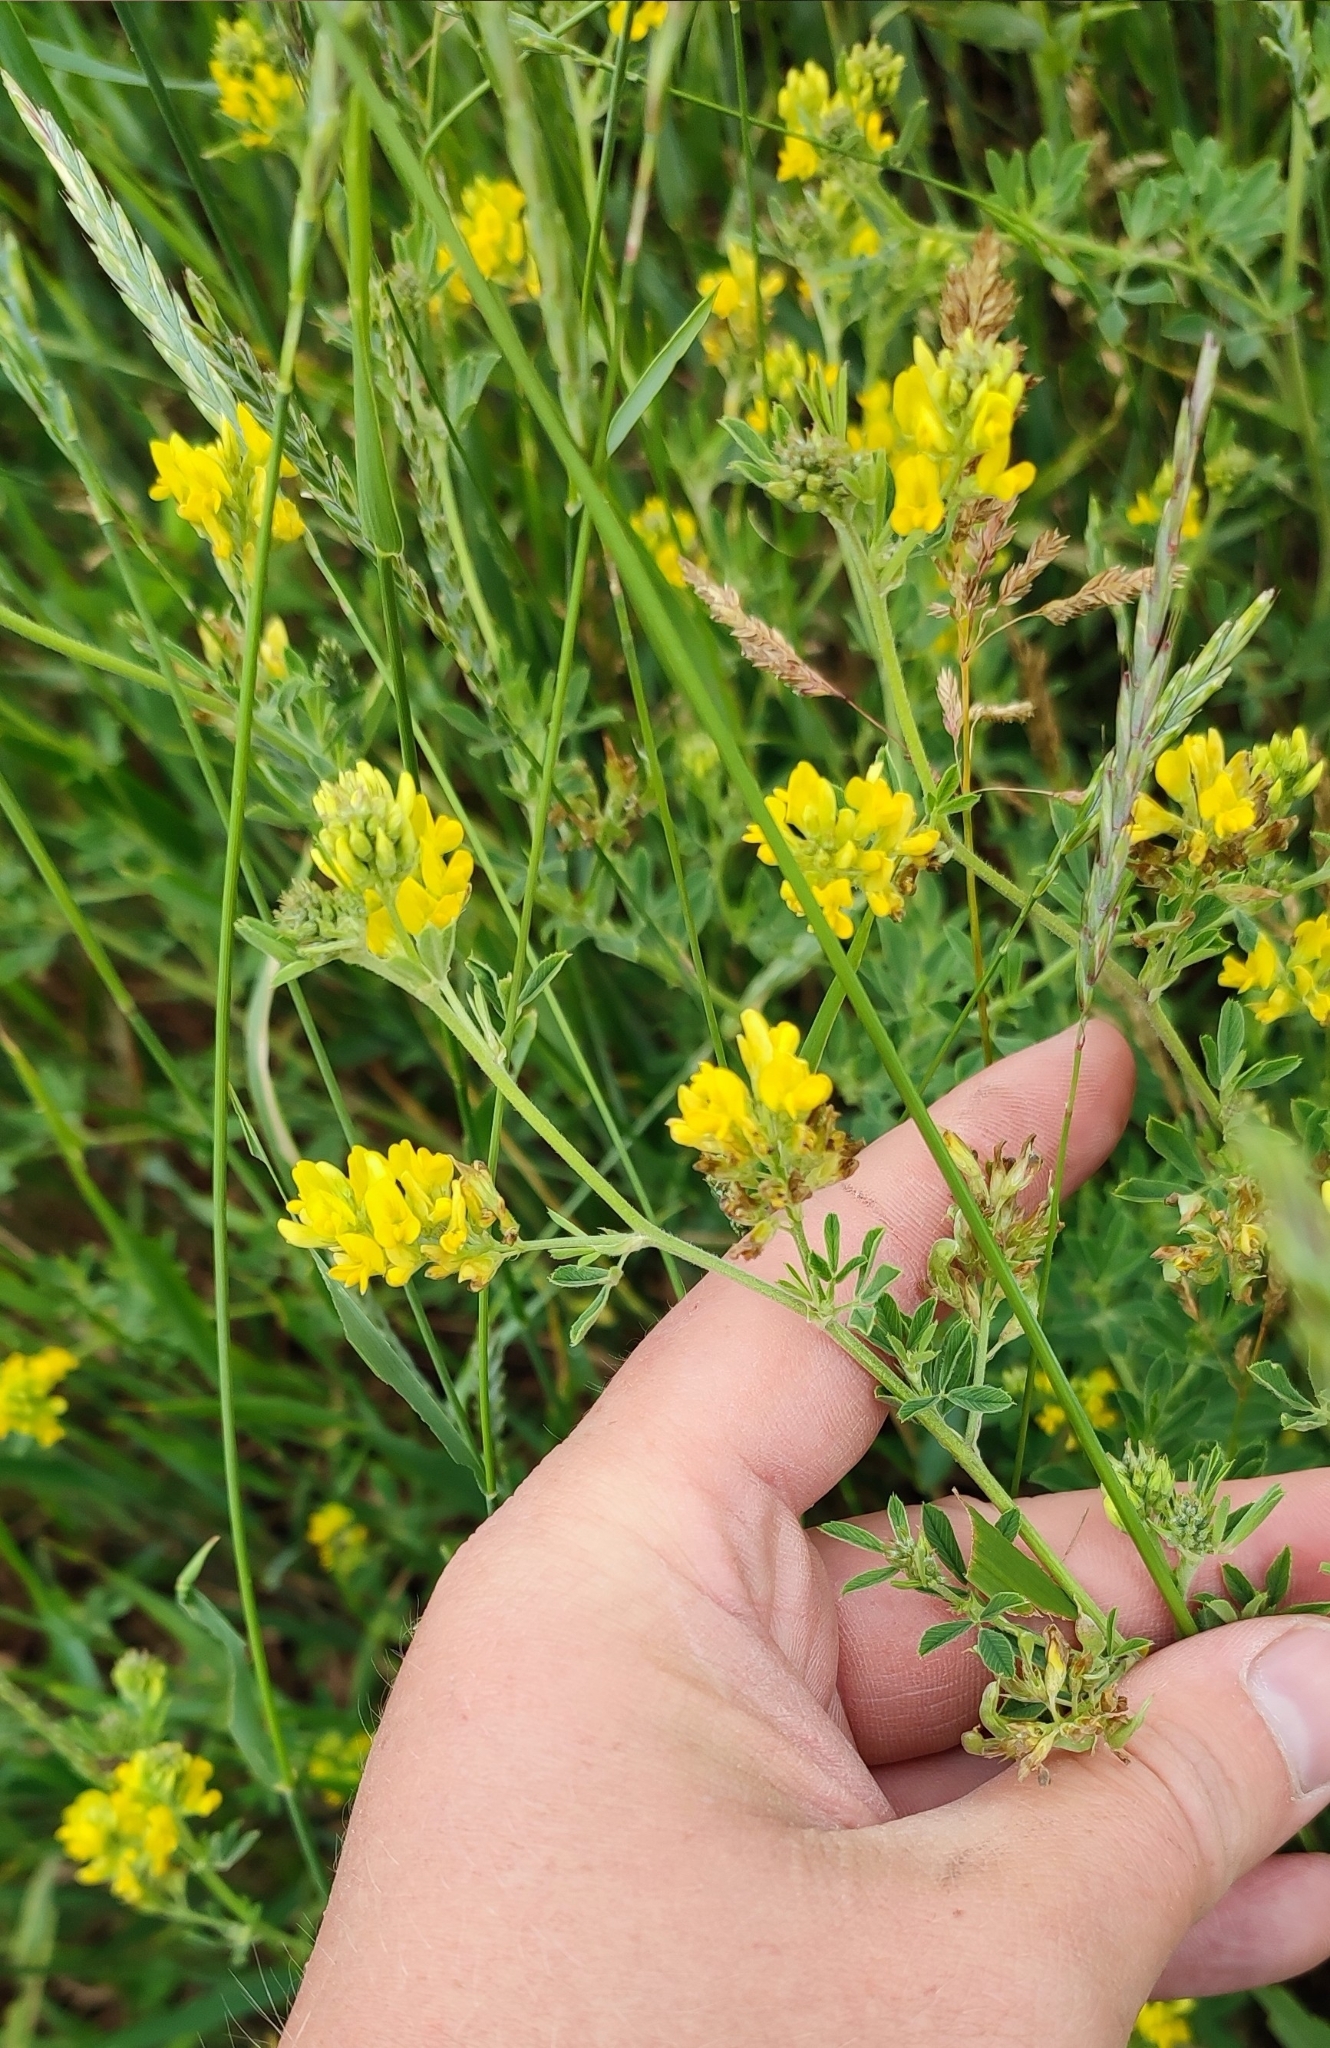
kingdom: Plantae
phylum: Tracheophyta
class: Magnoliopsida
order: Fabales
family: Fabaceae
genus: Medicago
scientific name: Medicago falcata
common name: Sickle medick
